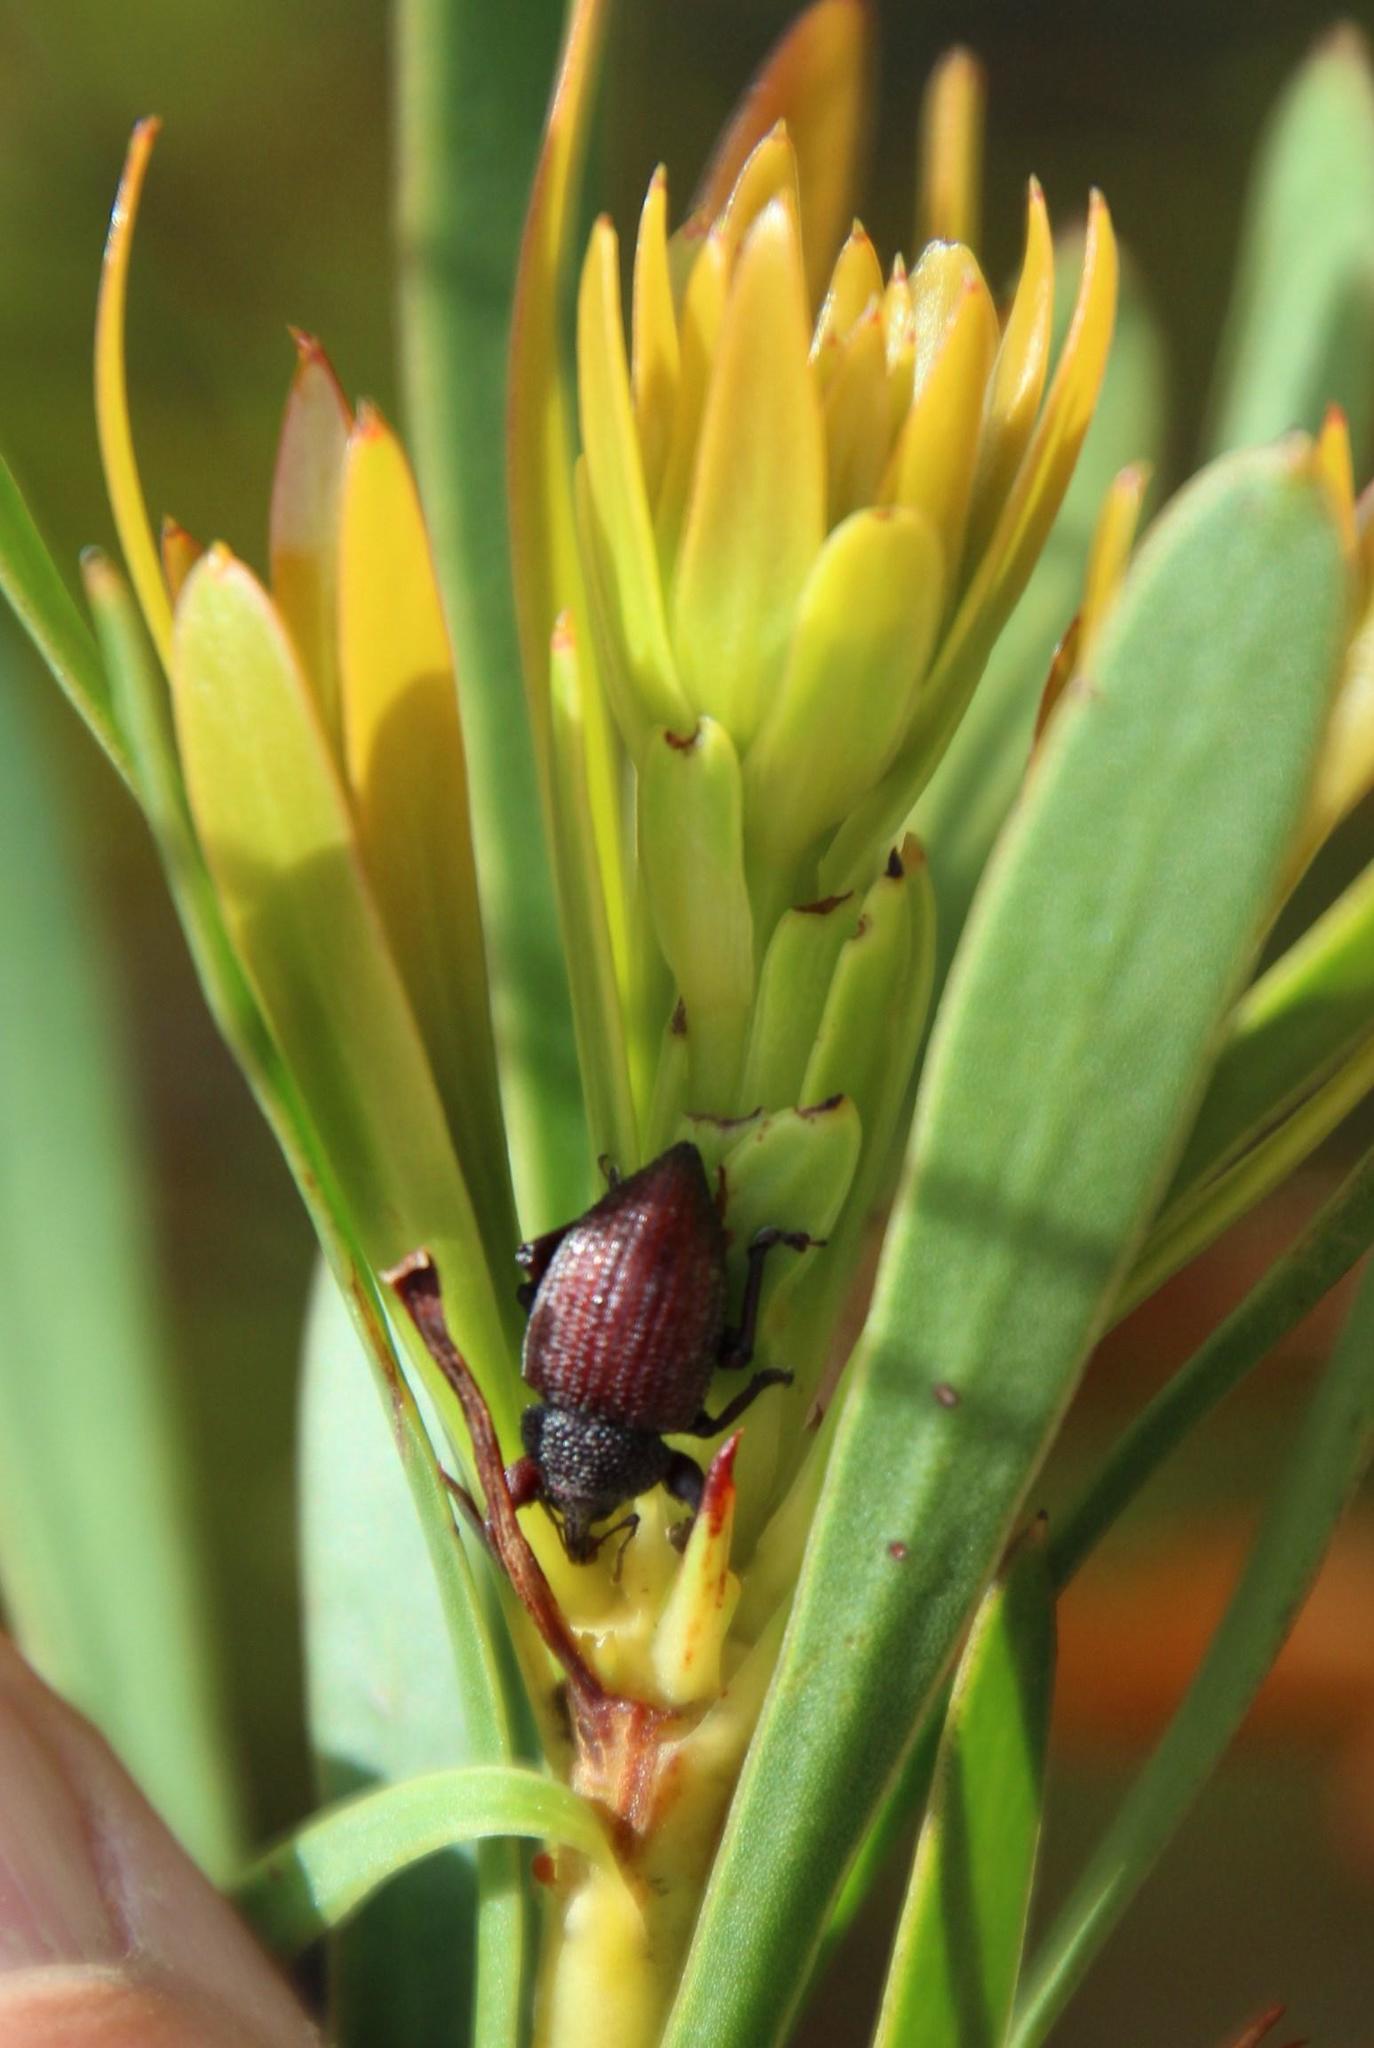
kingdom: Plantae
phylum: Tracheophyta
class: Magnoliopsida
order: Proteales
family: Proteaceae
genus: Aulax
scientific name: Aulax umbellata
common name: Broad-leaf featherbush
